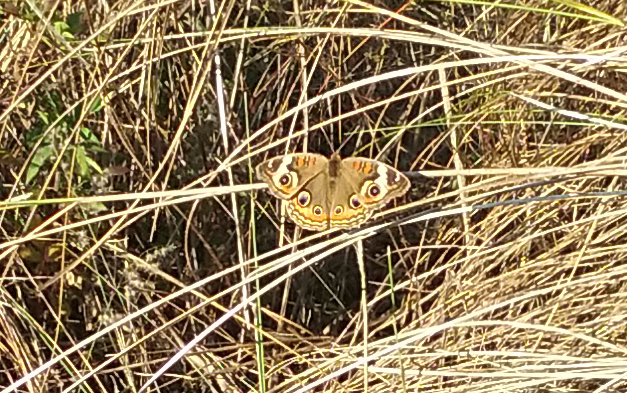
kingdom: Animalia
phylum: Arthropoda
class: Insecta
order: Lepidoptera
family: Nymphalidae
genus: Junonia
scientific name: Junonia coenia
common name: Common buckeye
